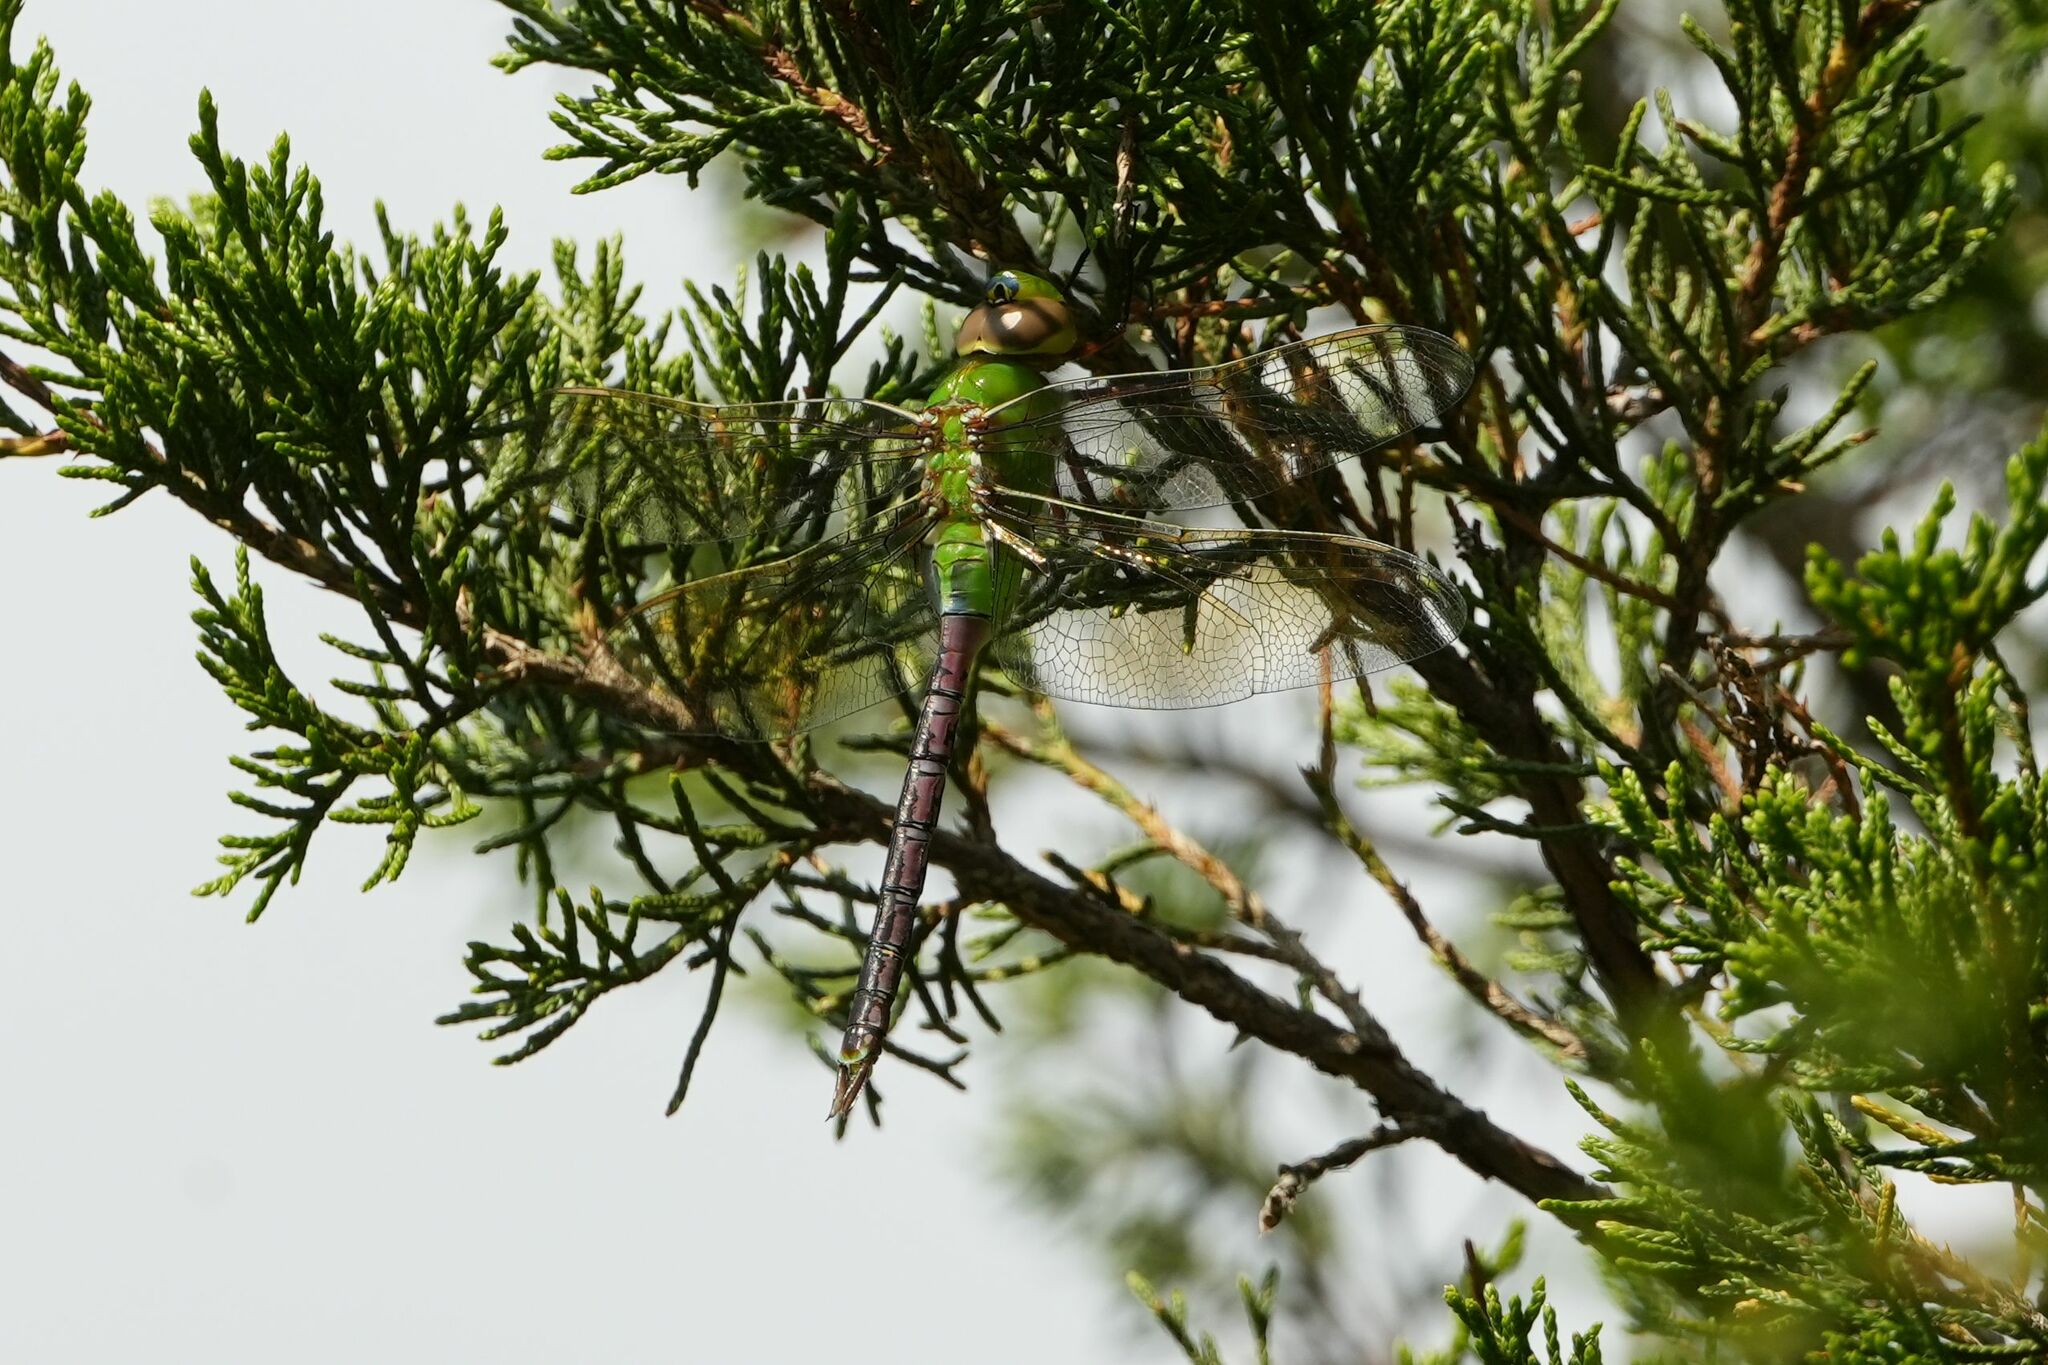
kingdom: Animalia
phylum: Arthropoda
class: Insecta
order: Odonata
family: Aeshnidae
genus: Anax
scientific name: Anax junius
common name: Common green darner
